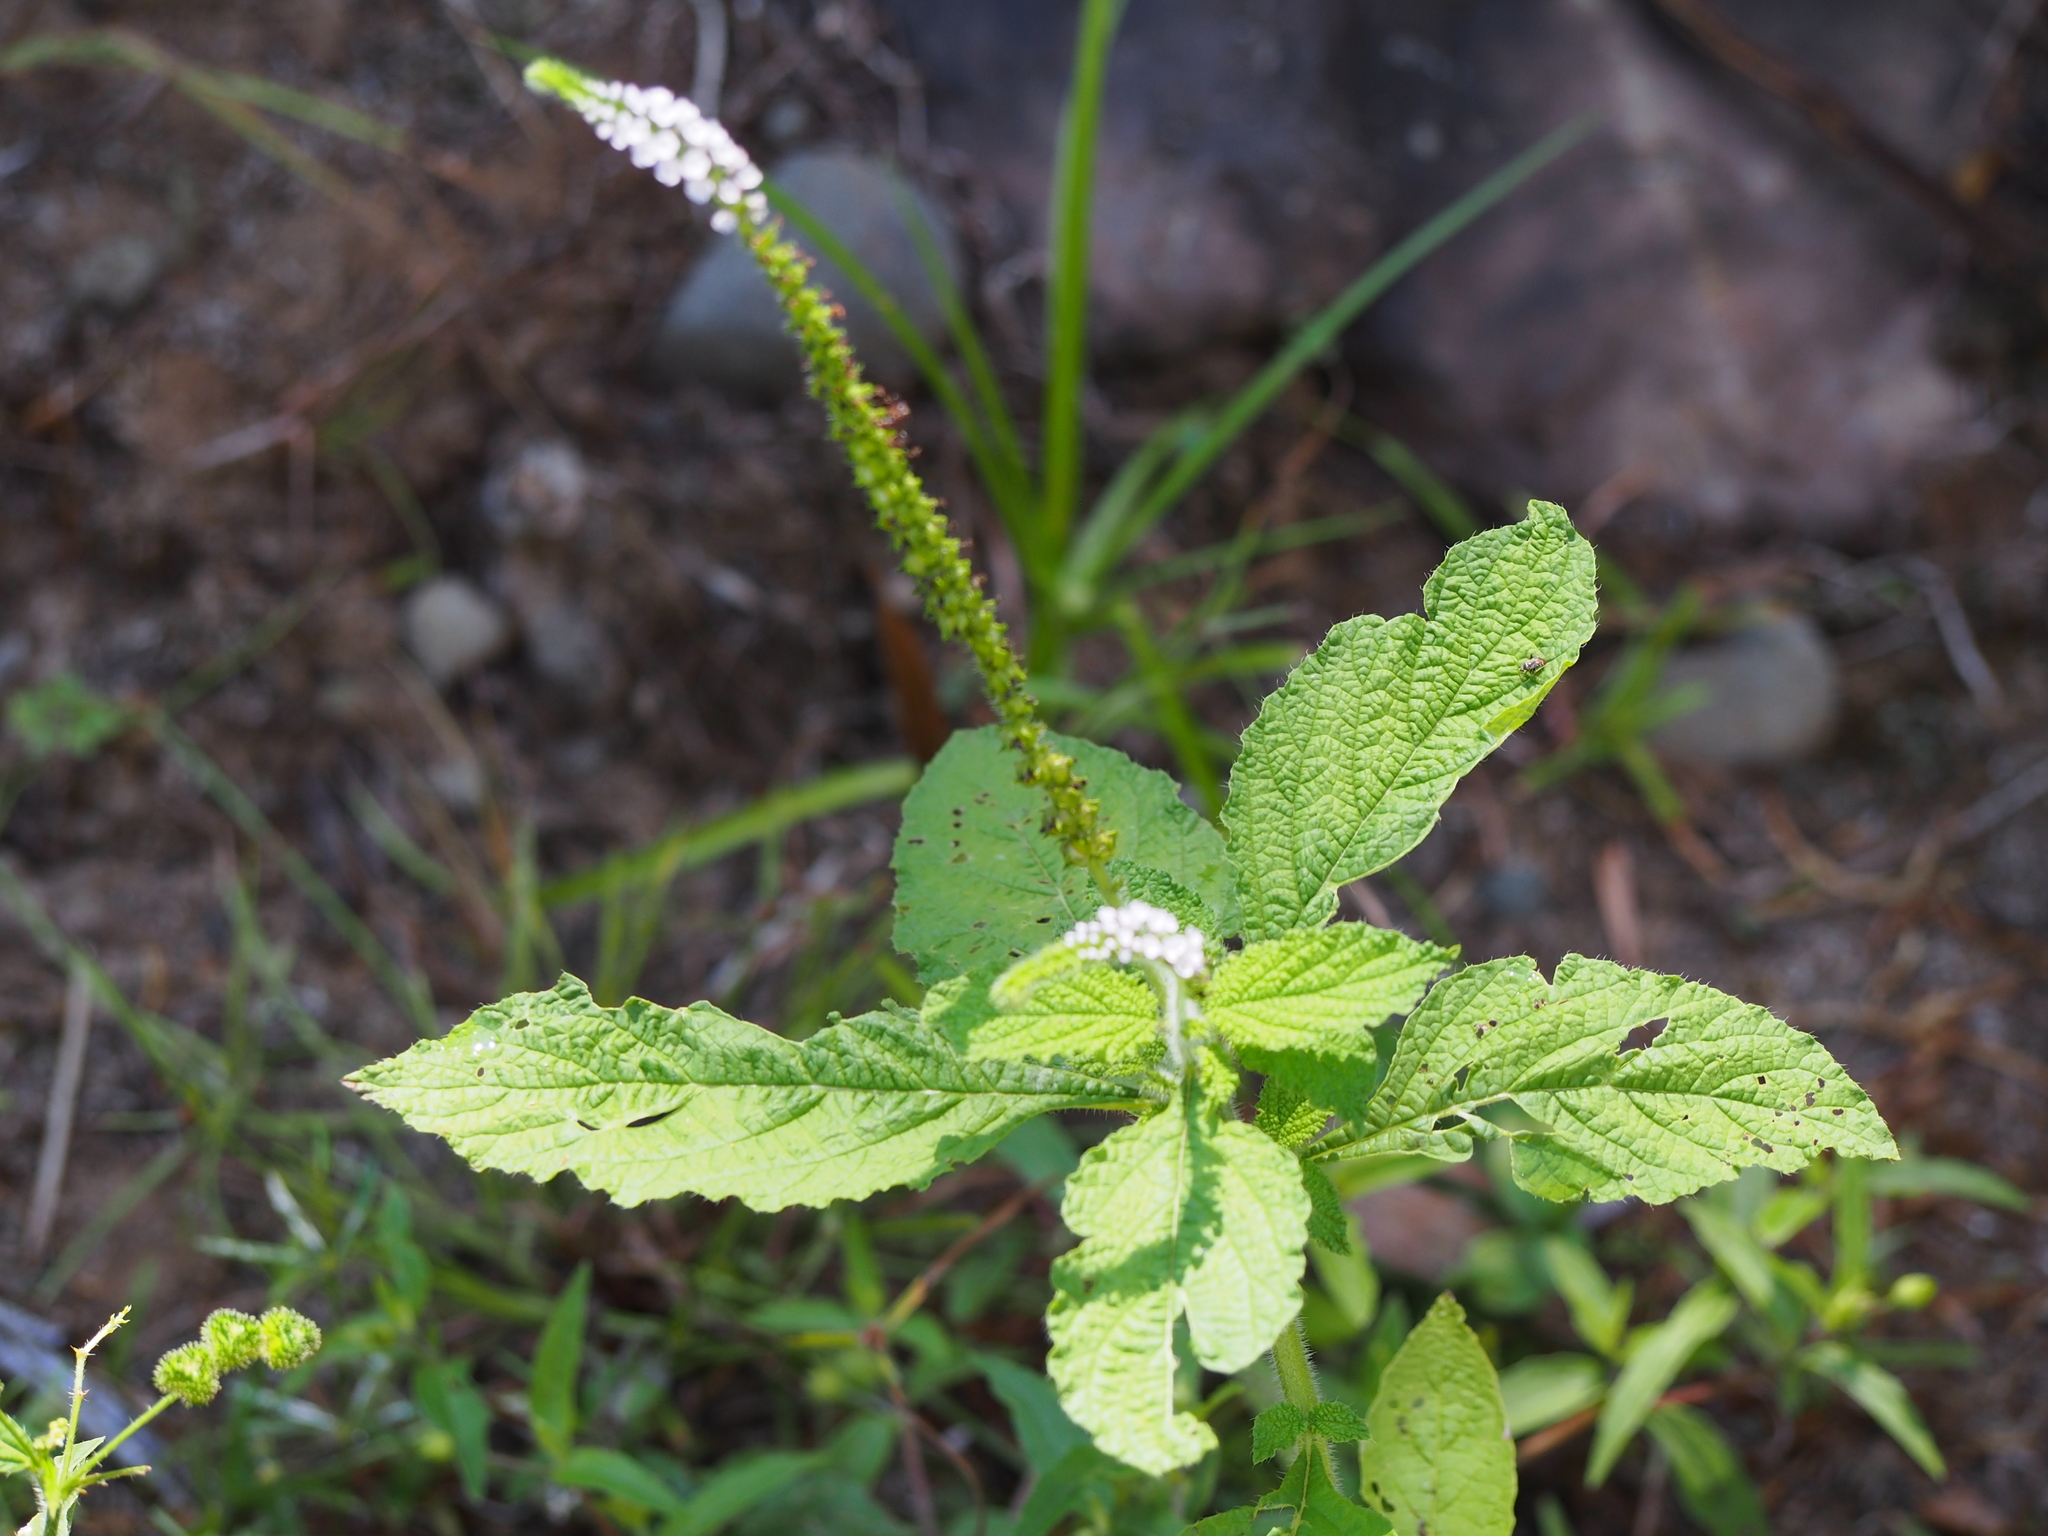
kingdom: Plantae
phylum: Tracheophyta
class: Magnoliopsida
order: Boraginales
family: Heliotropiaceae
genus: Heliotropium
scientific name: Heliotropium indicum
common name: Indian heliotrope
